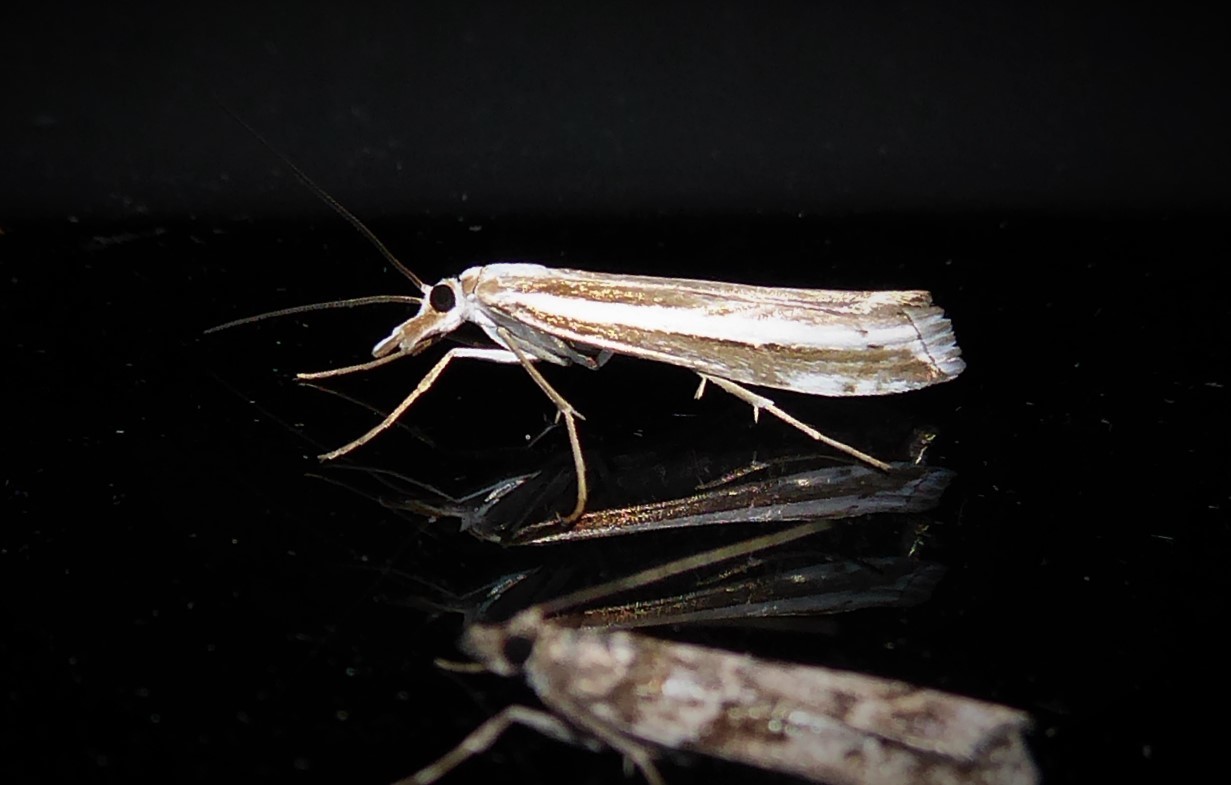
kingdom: Animalia
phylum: Arthropoda
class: Insecta
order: Lepidoptera
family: Crambidae
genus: Orocrambus
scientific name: Orocrambus vittellus
